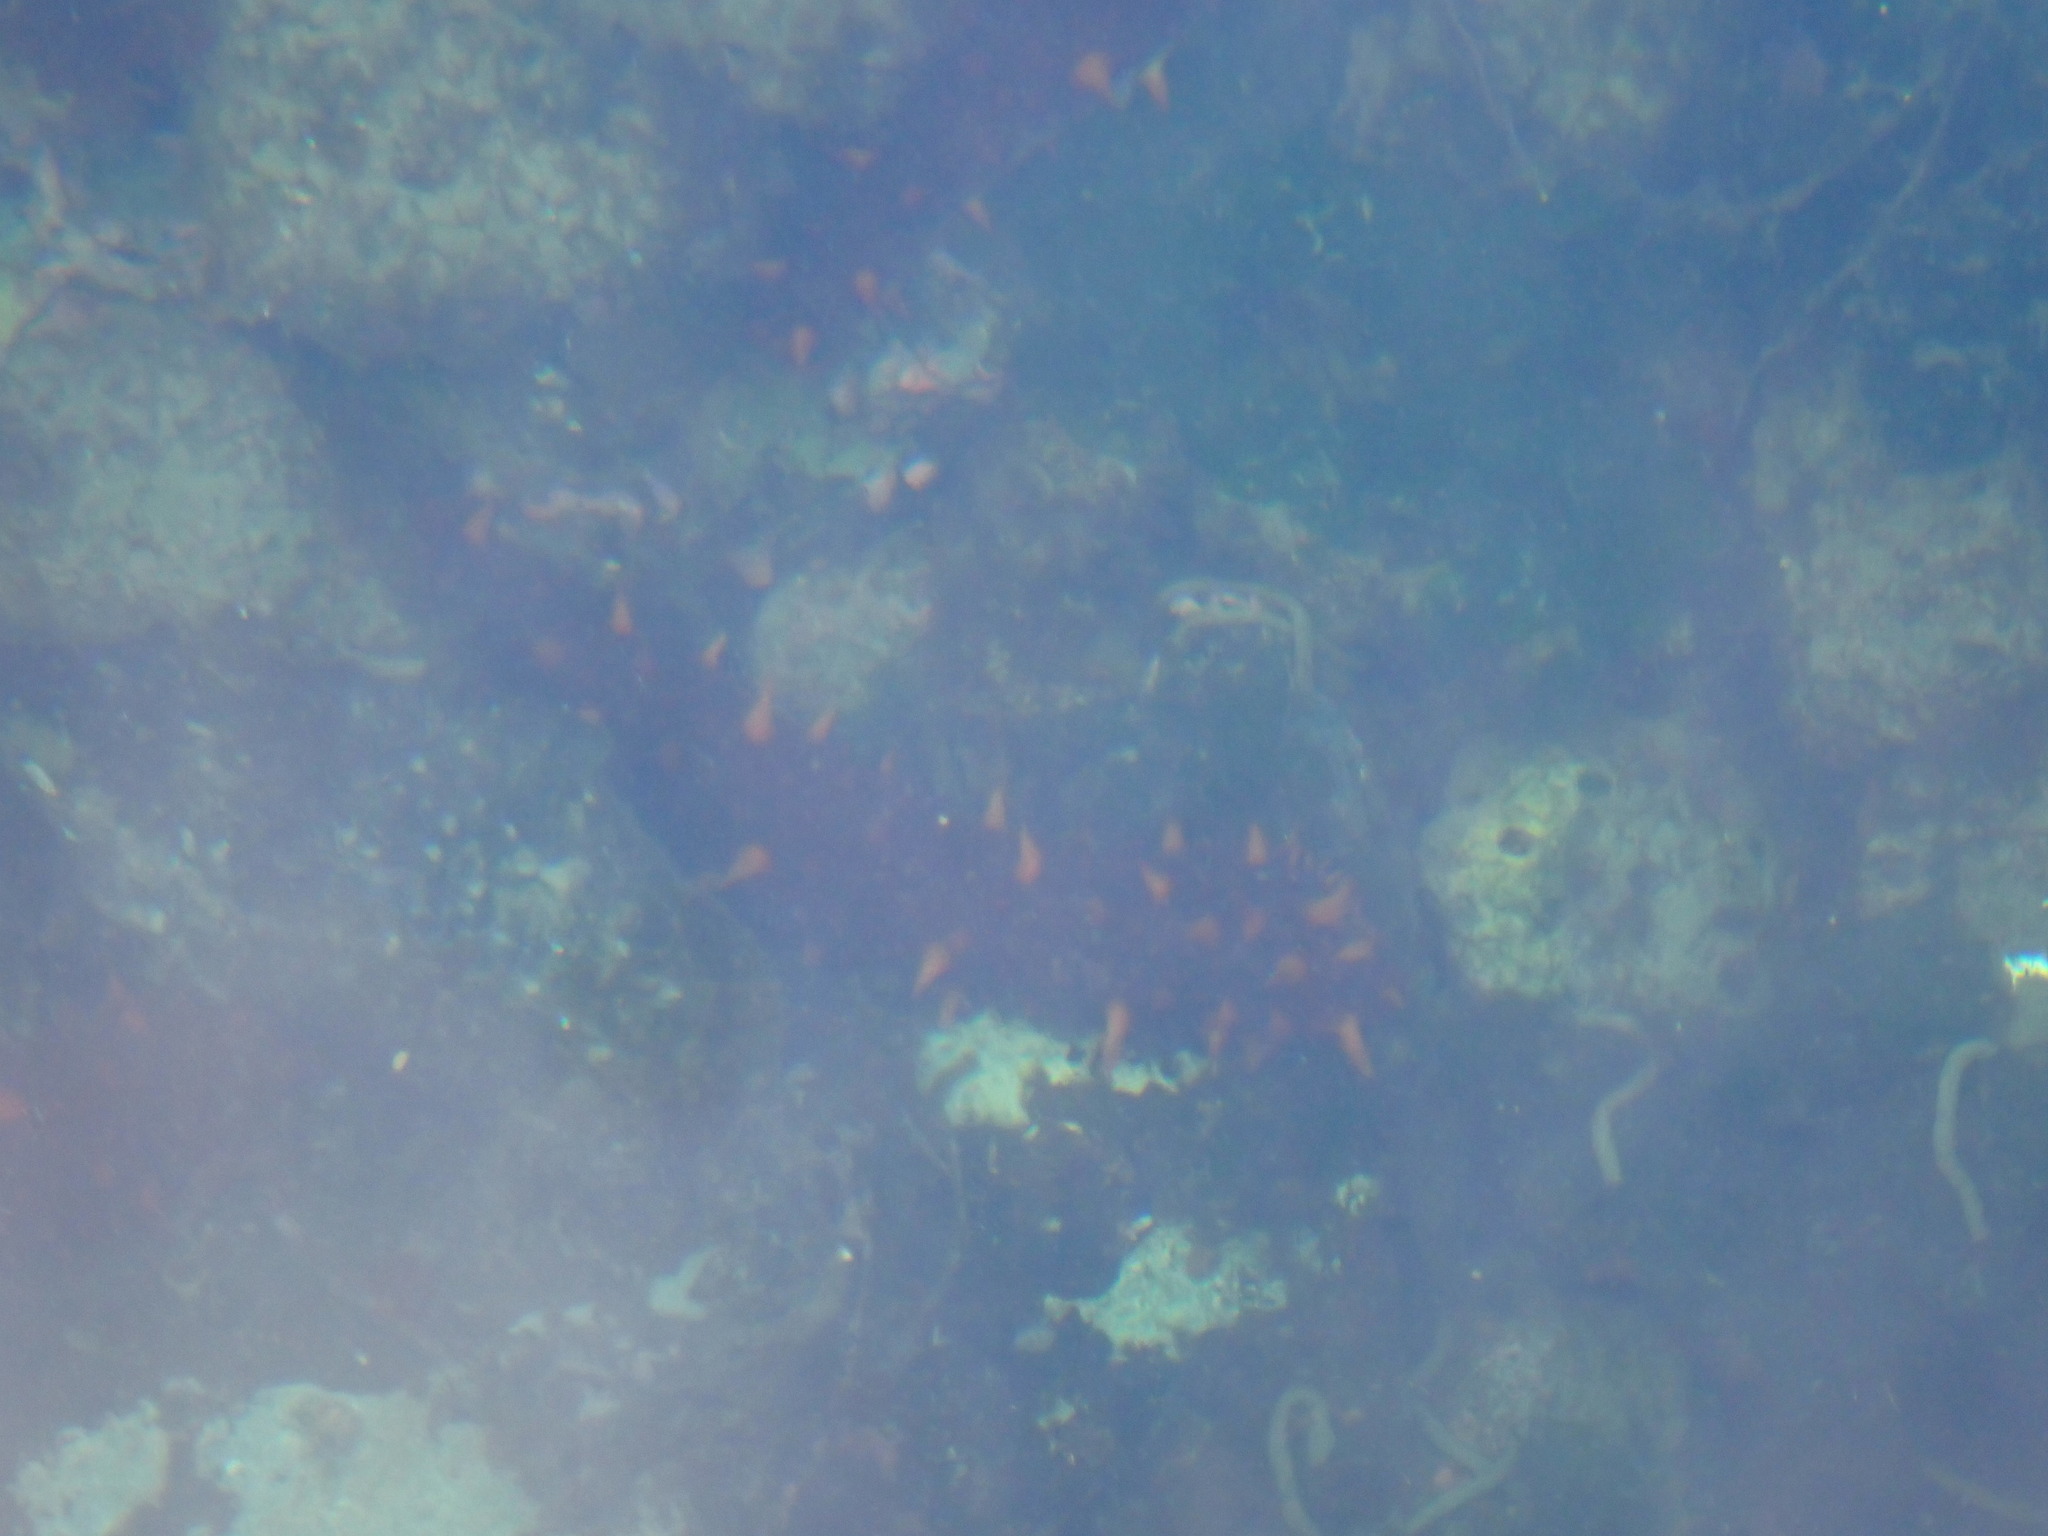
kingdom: Animalia
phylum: Echinodermata
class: Holothuroidea
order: Synallactida
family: Stichopodidae
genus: Apostichopus
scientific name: Apostichopus californicus
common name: California sea cucumber
